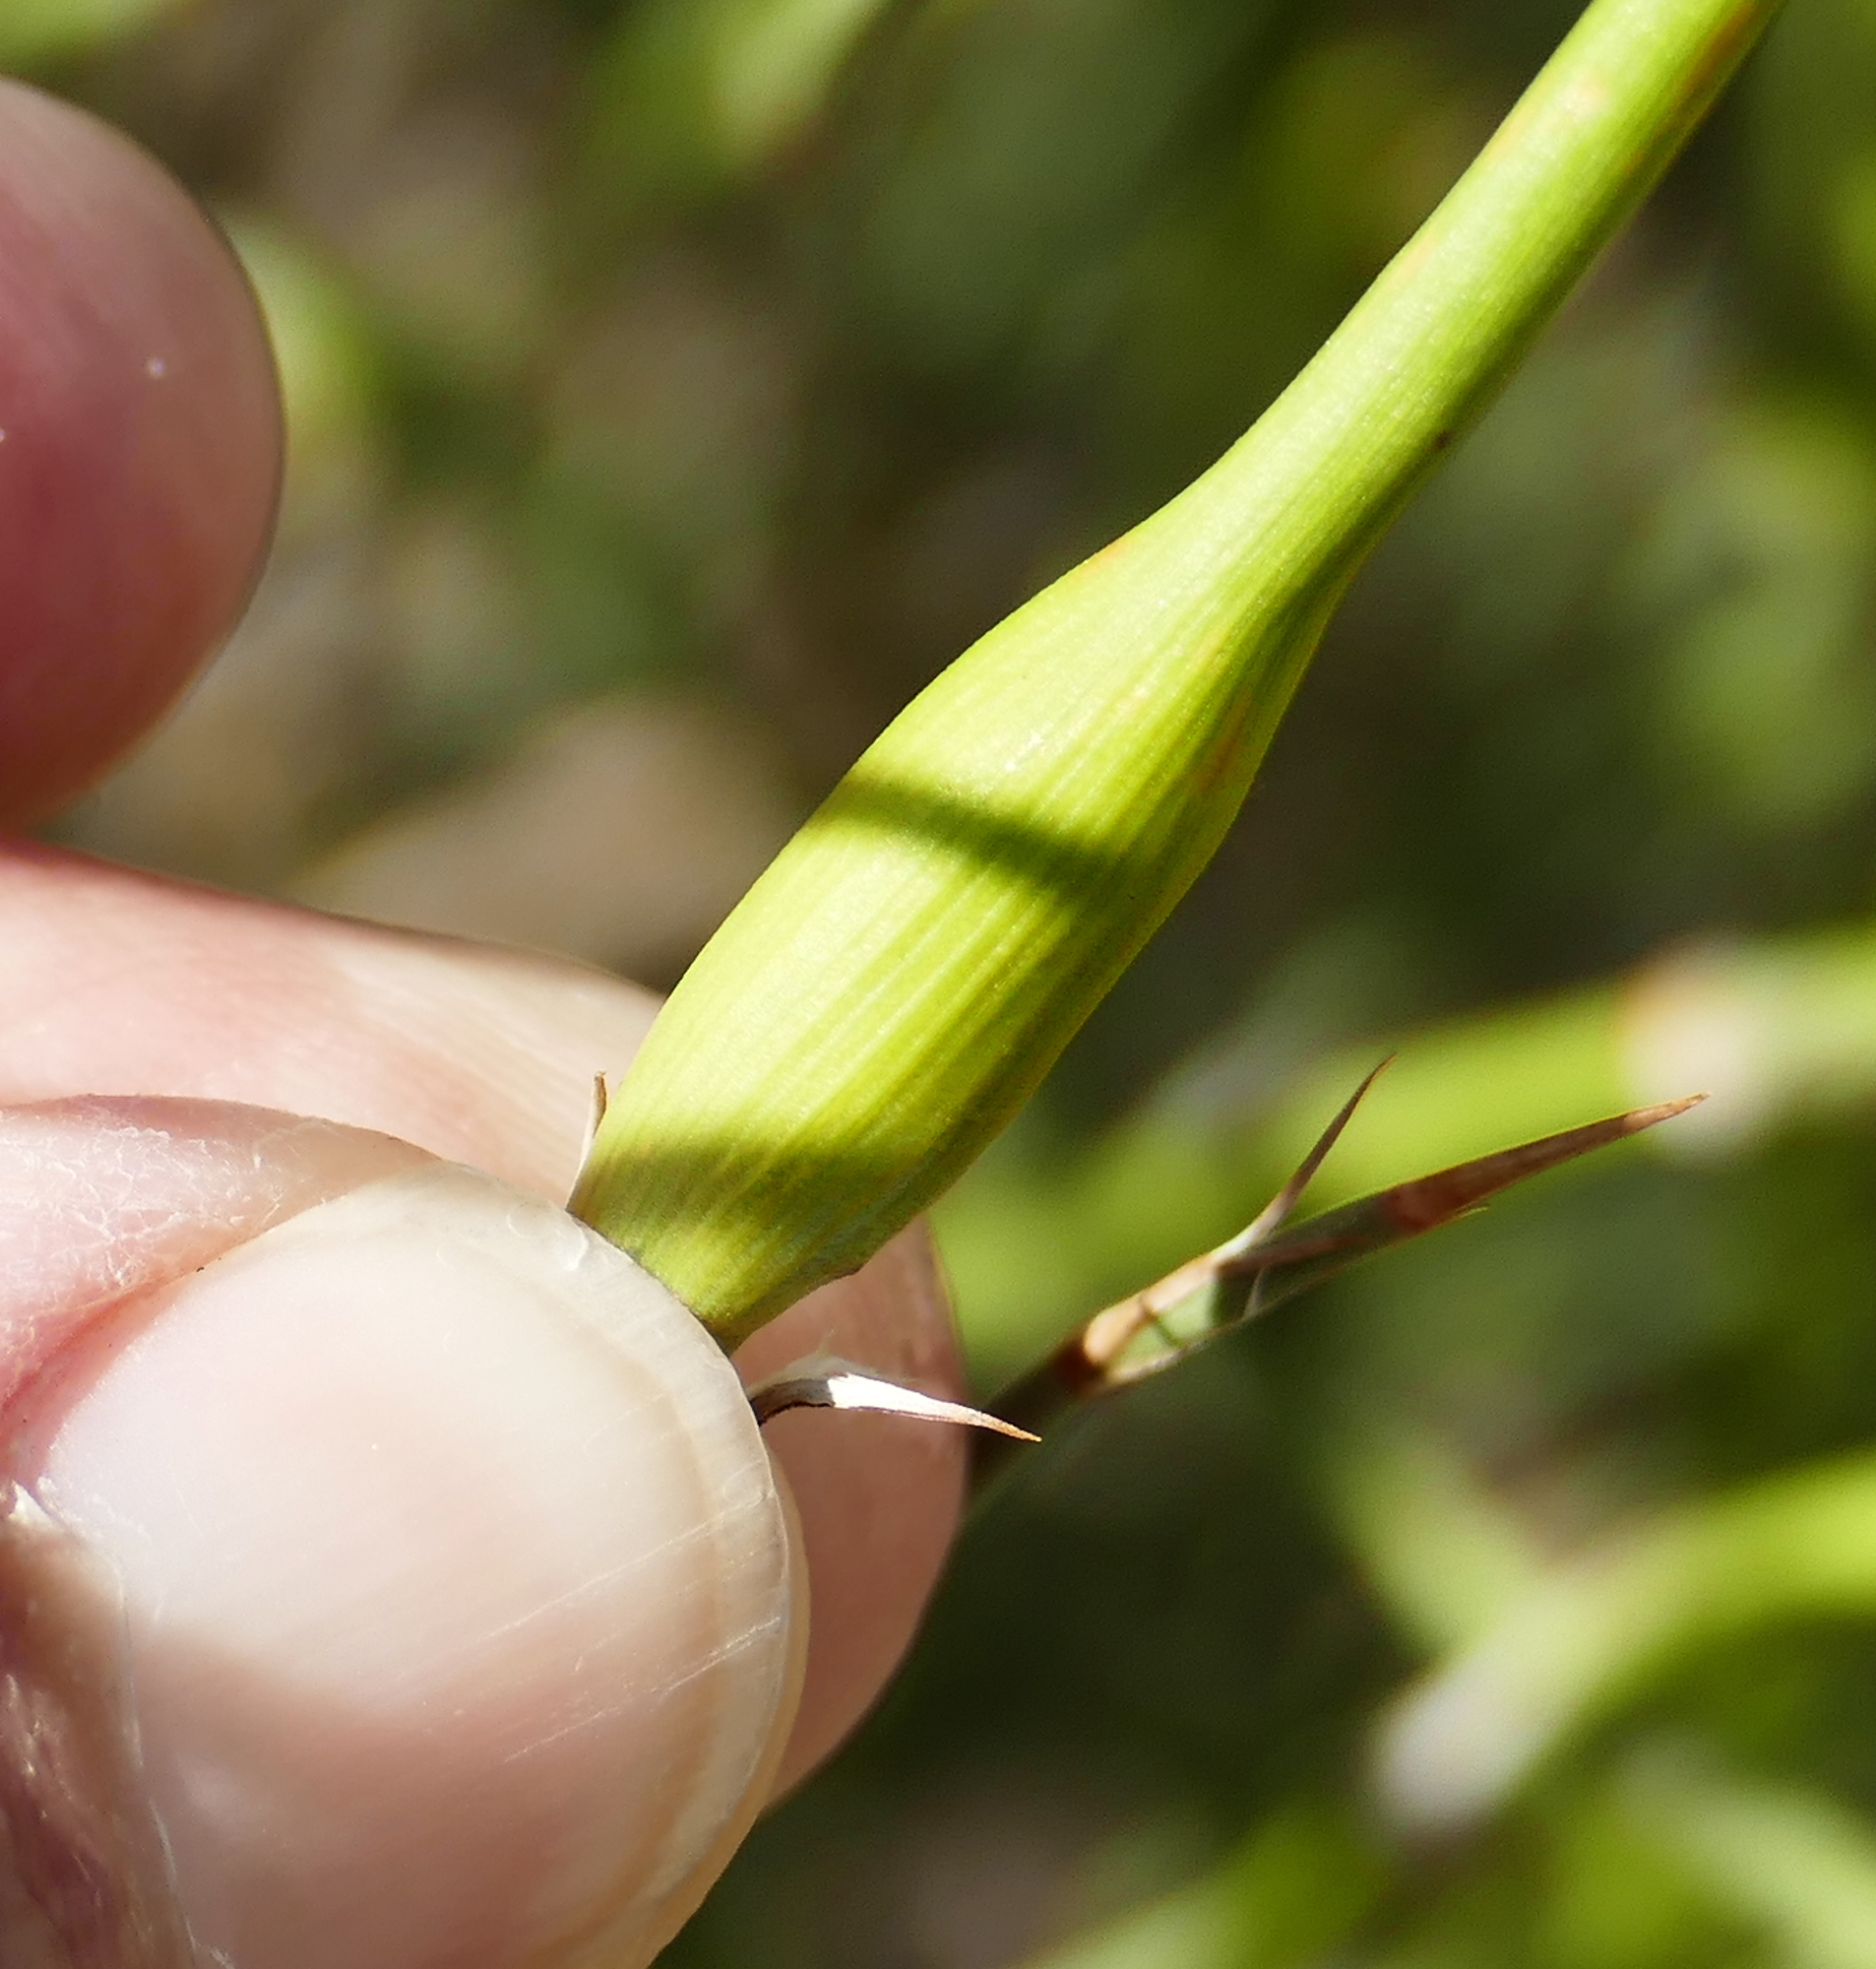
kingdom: Animalia
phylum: Arthropoda
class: Insecta
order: Diptera
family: Cecidomyiidae
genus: Lasioptera
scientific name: Lasioptera ephedrae
